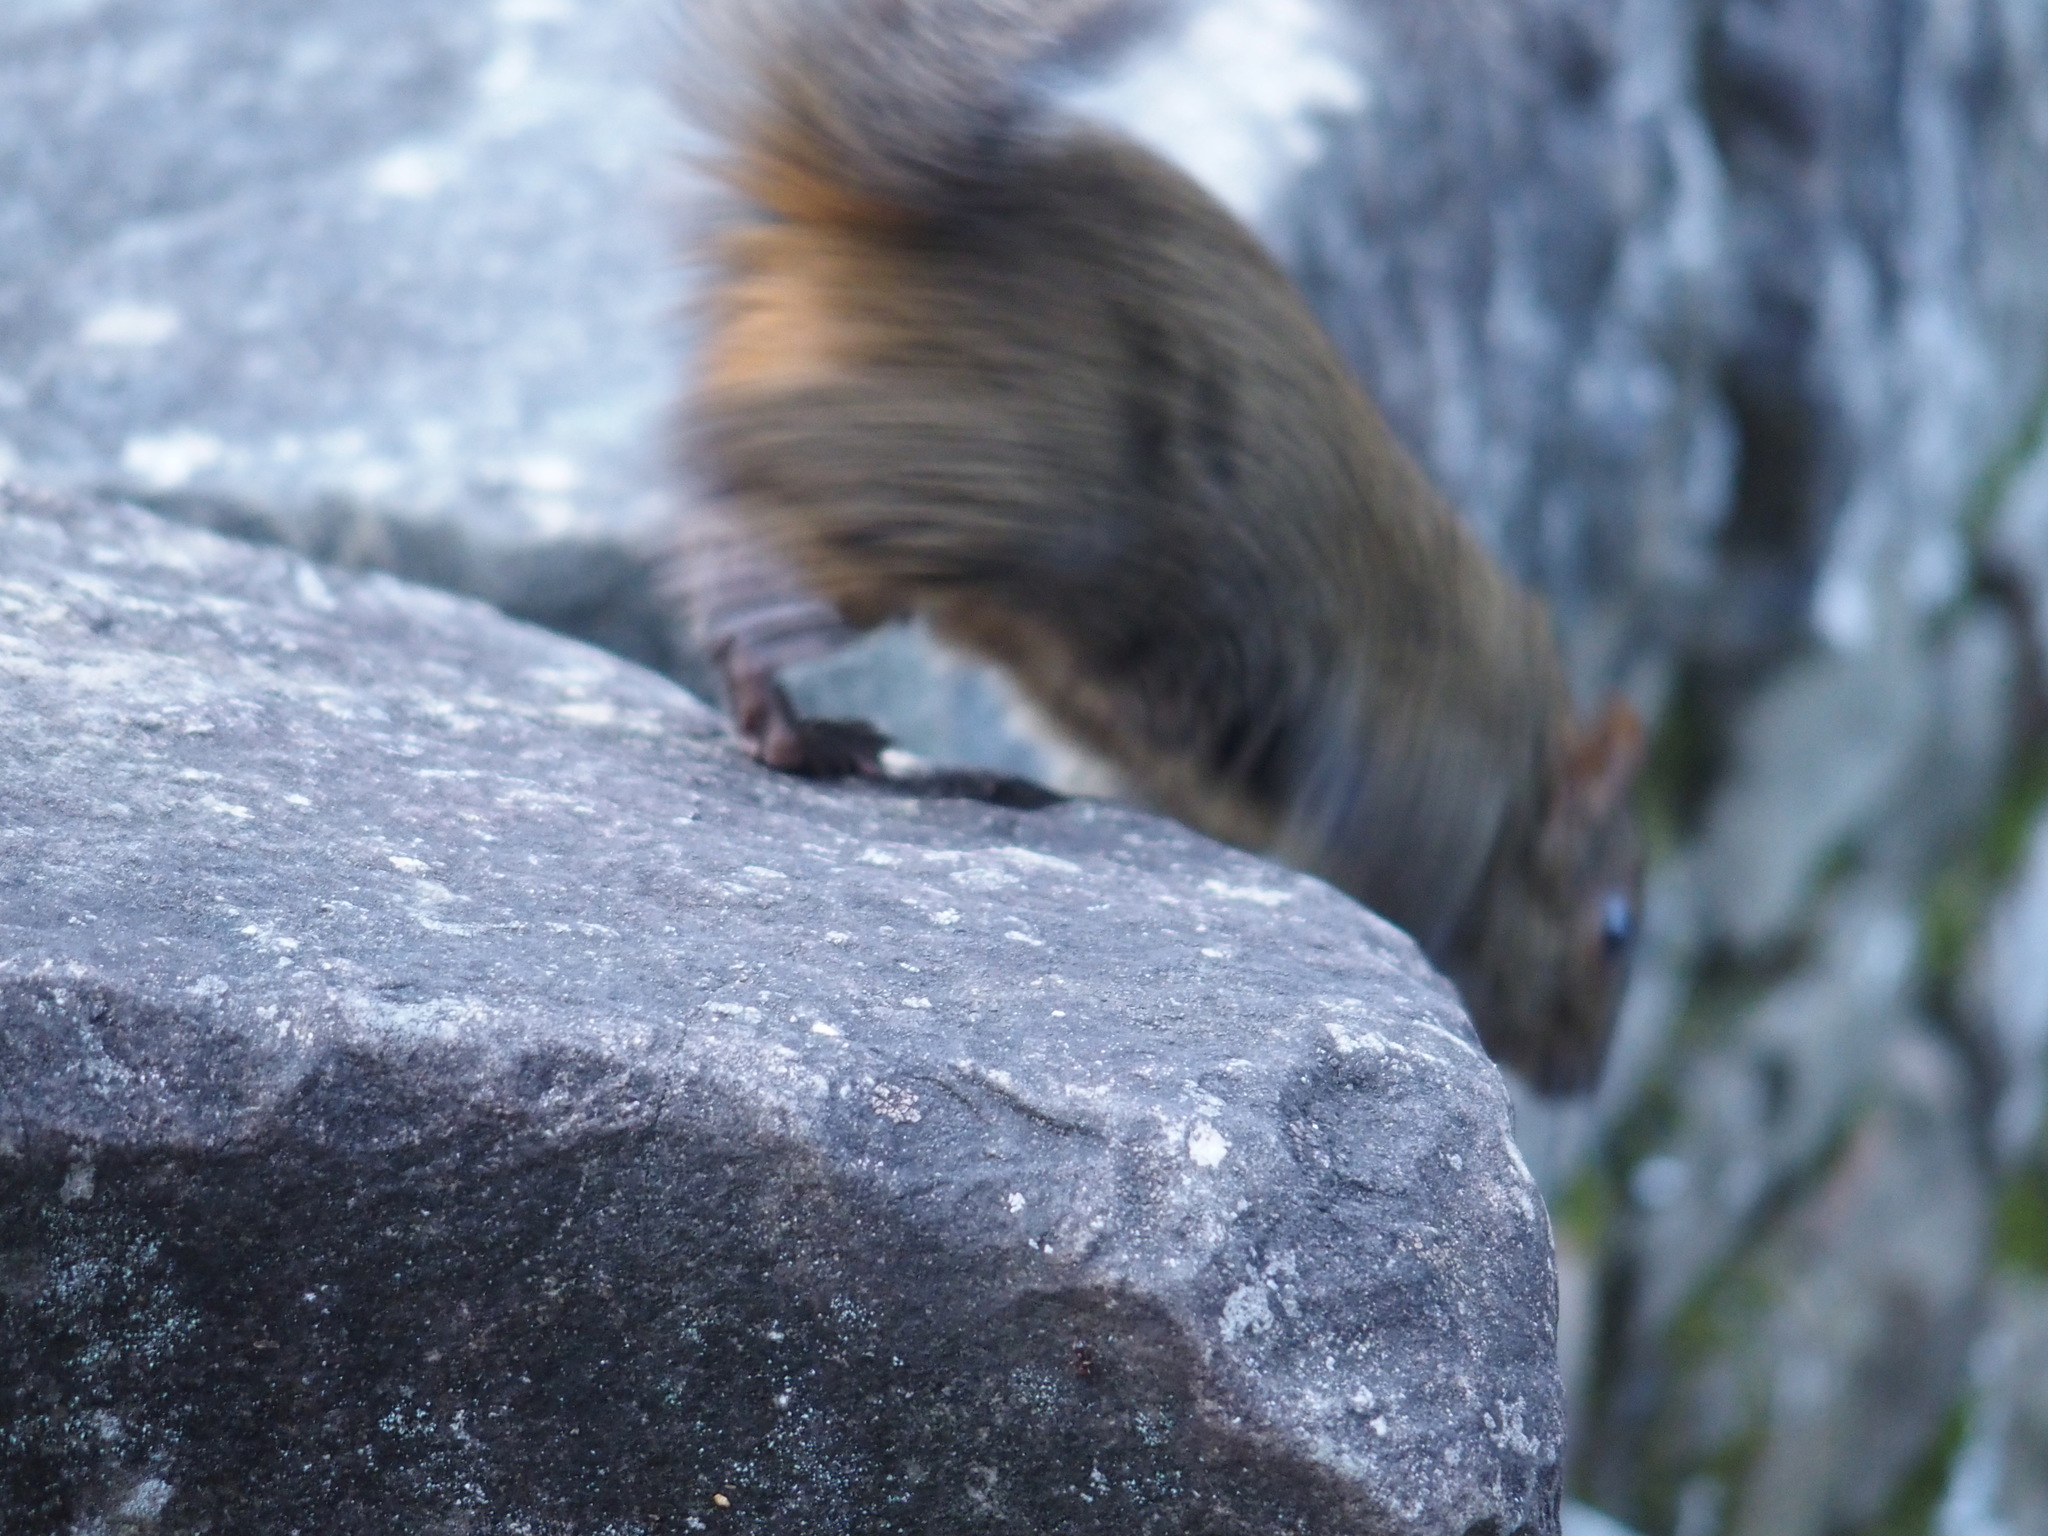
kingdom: Animalia
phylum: Chordata
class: Mammalia
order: Rodentia
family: Sciuridae
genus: Dremomys
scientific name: Dremomys pernyi
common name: Perny's long-nosed squirrel
